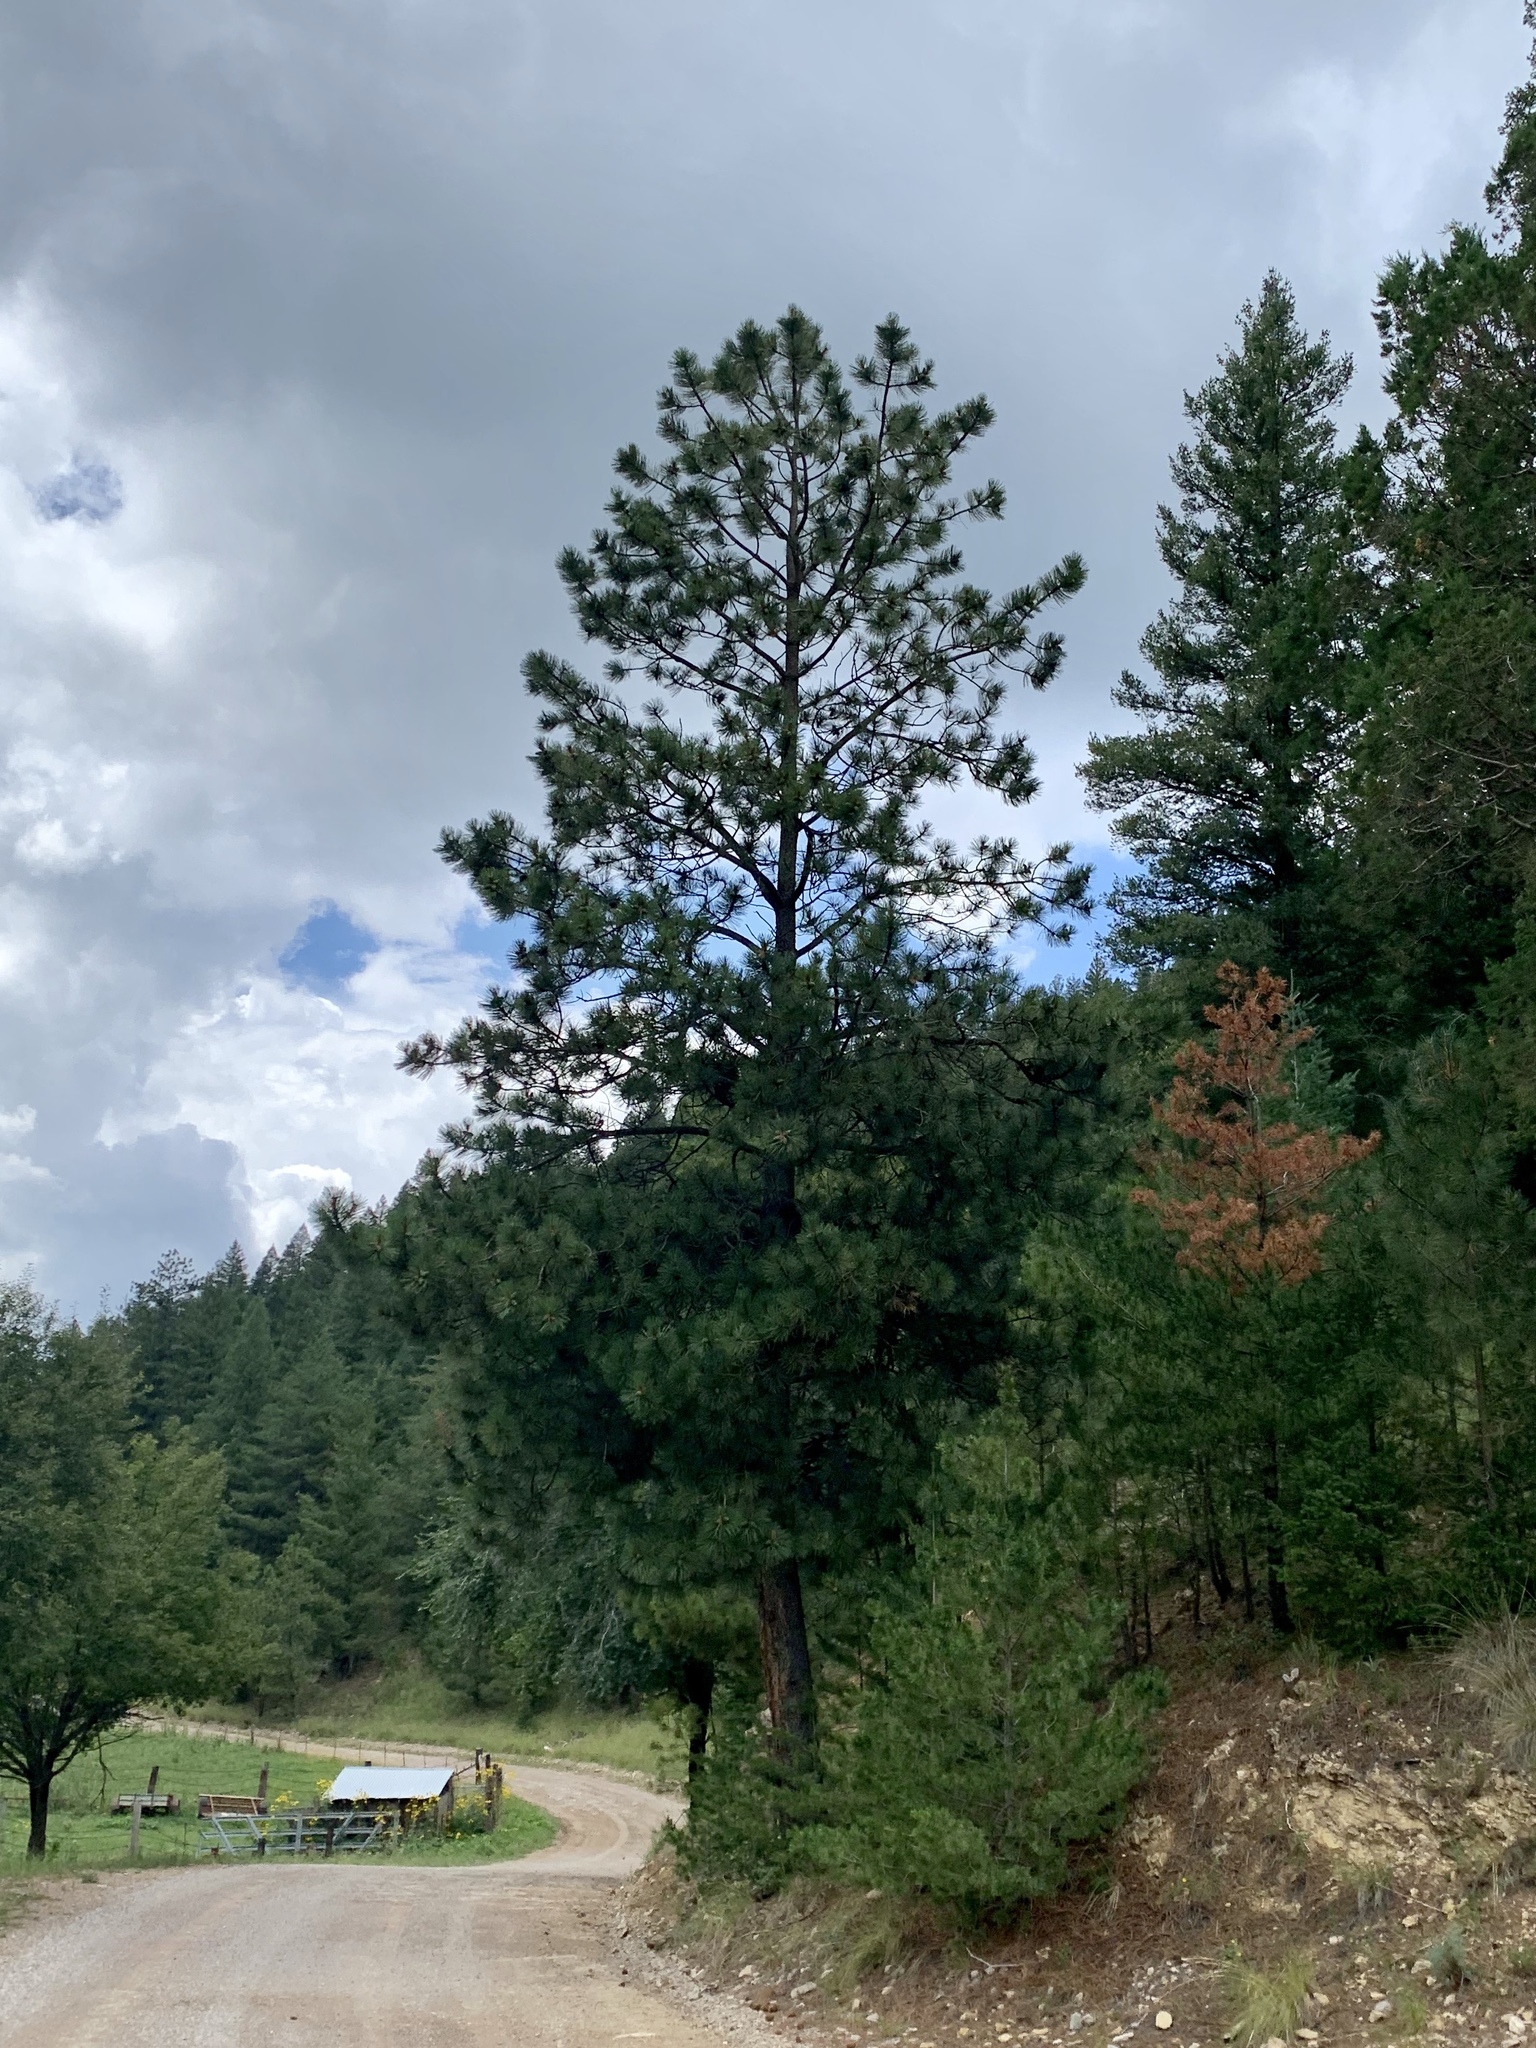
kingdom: Plantae
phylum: Tracheophyta
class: Pinopsida
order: Pinales
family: Pinaceae
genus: Pinus
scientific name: Pinus ponderosa
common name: Western yellow-pine
